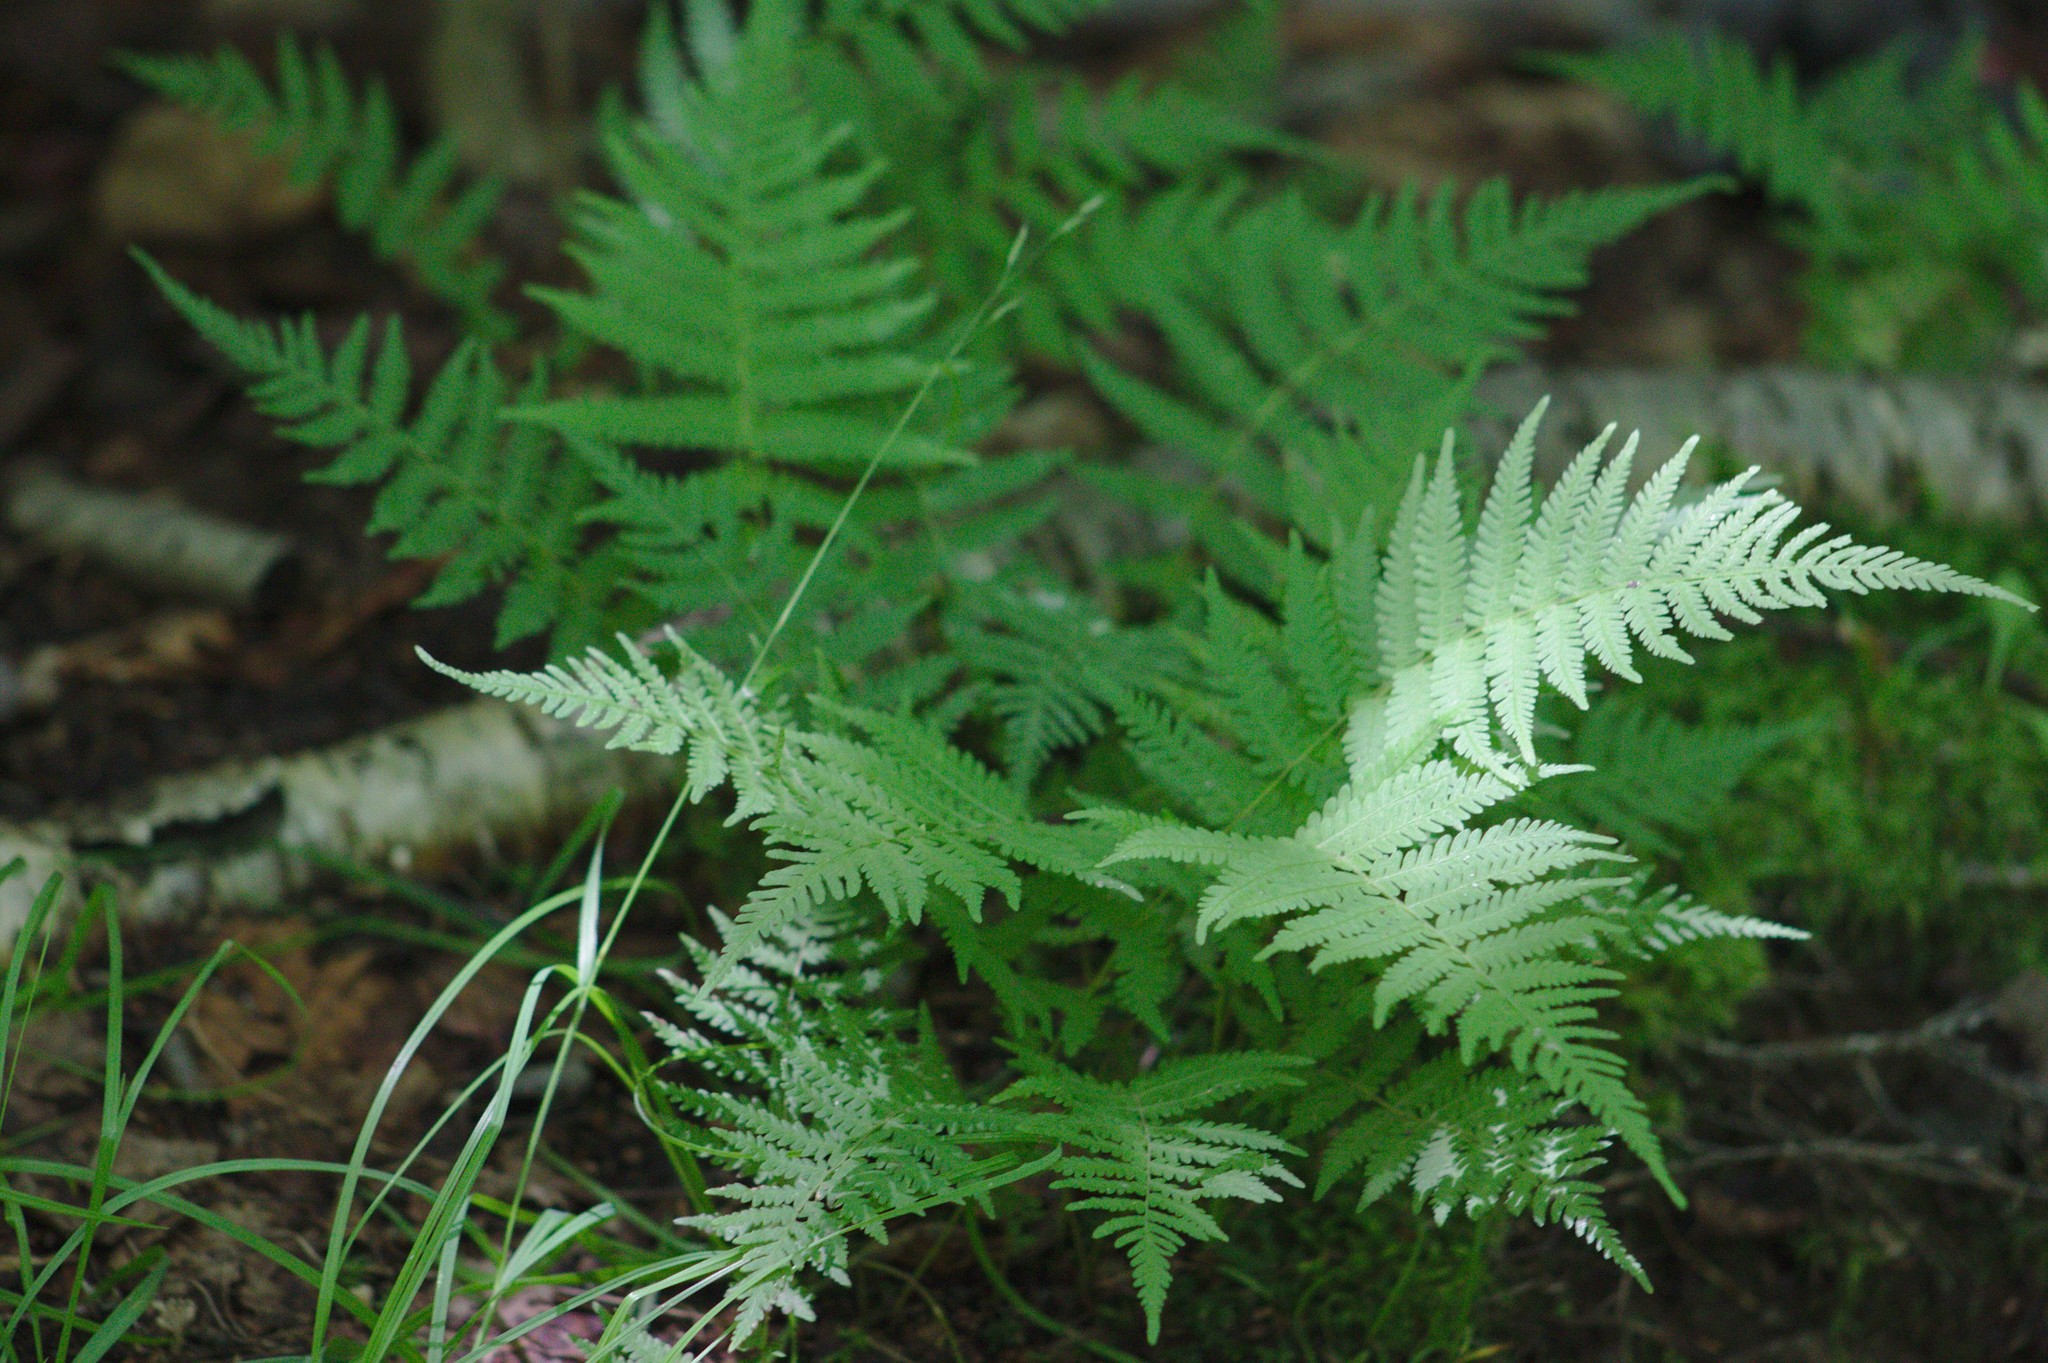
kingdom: Plantae
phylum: Tracheophyta
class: Polypodiopsida
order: Polypodiales
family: Thelypteridaceae
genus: Amauropelta
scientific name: Amauropelta noveboracensis
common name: New york fern
